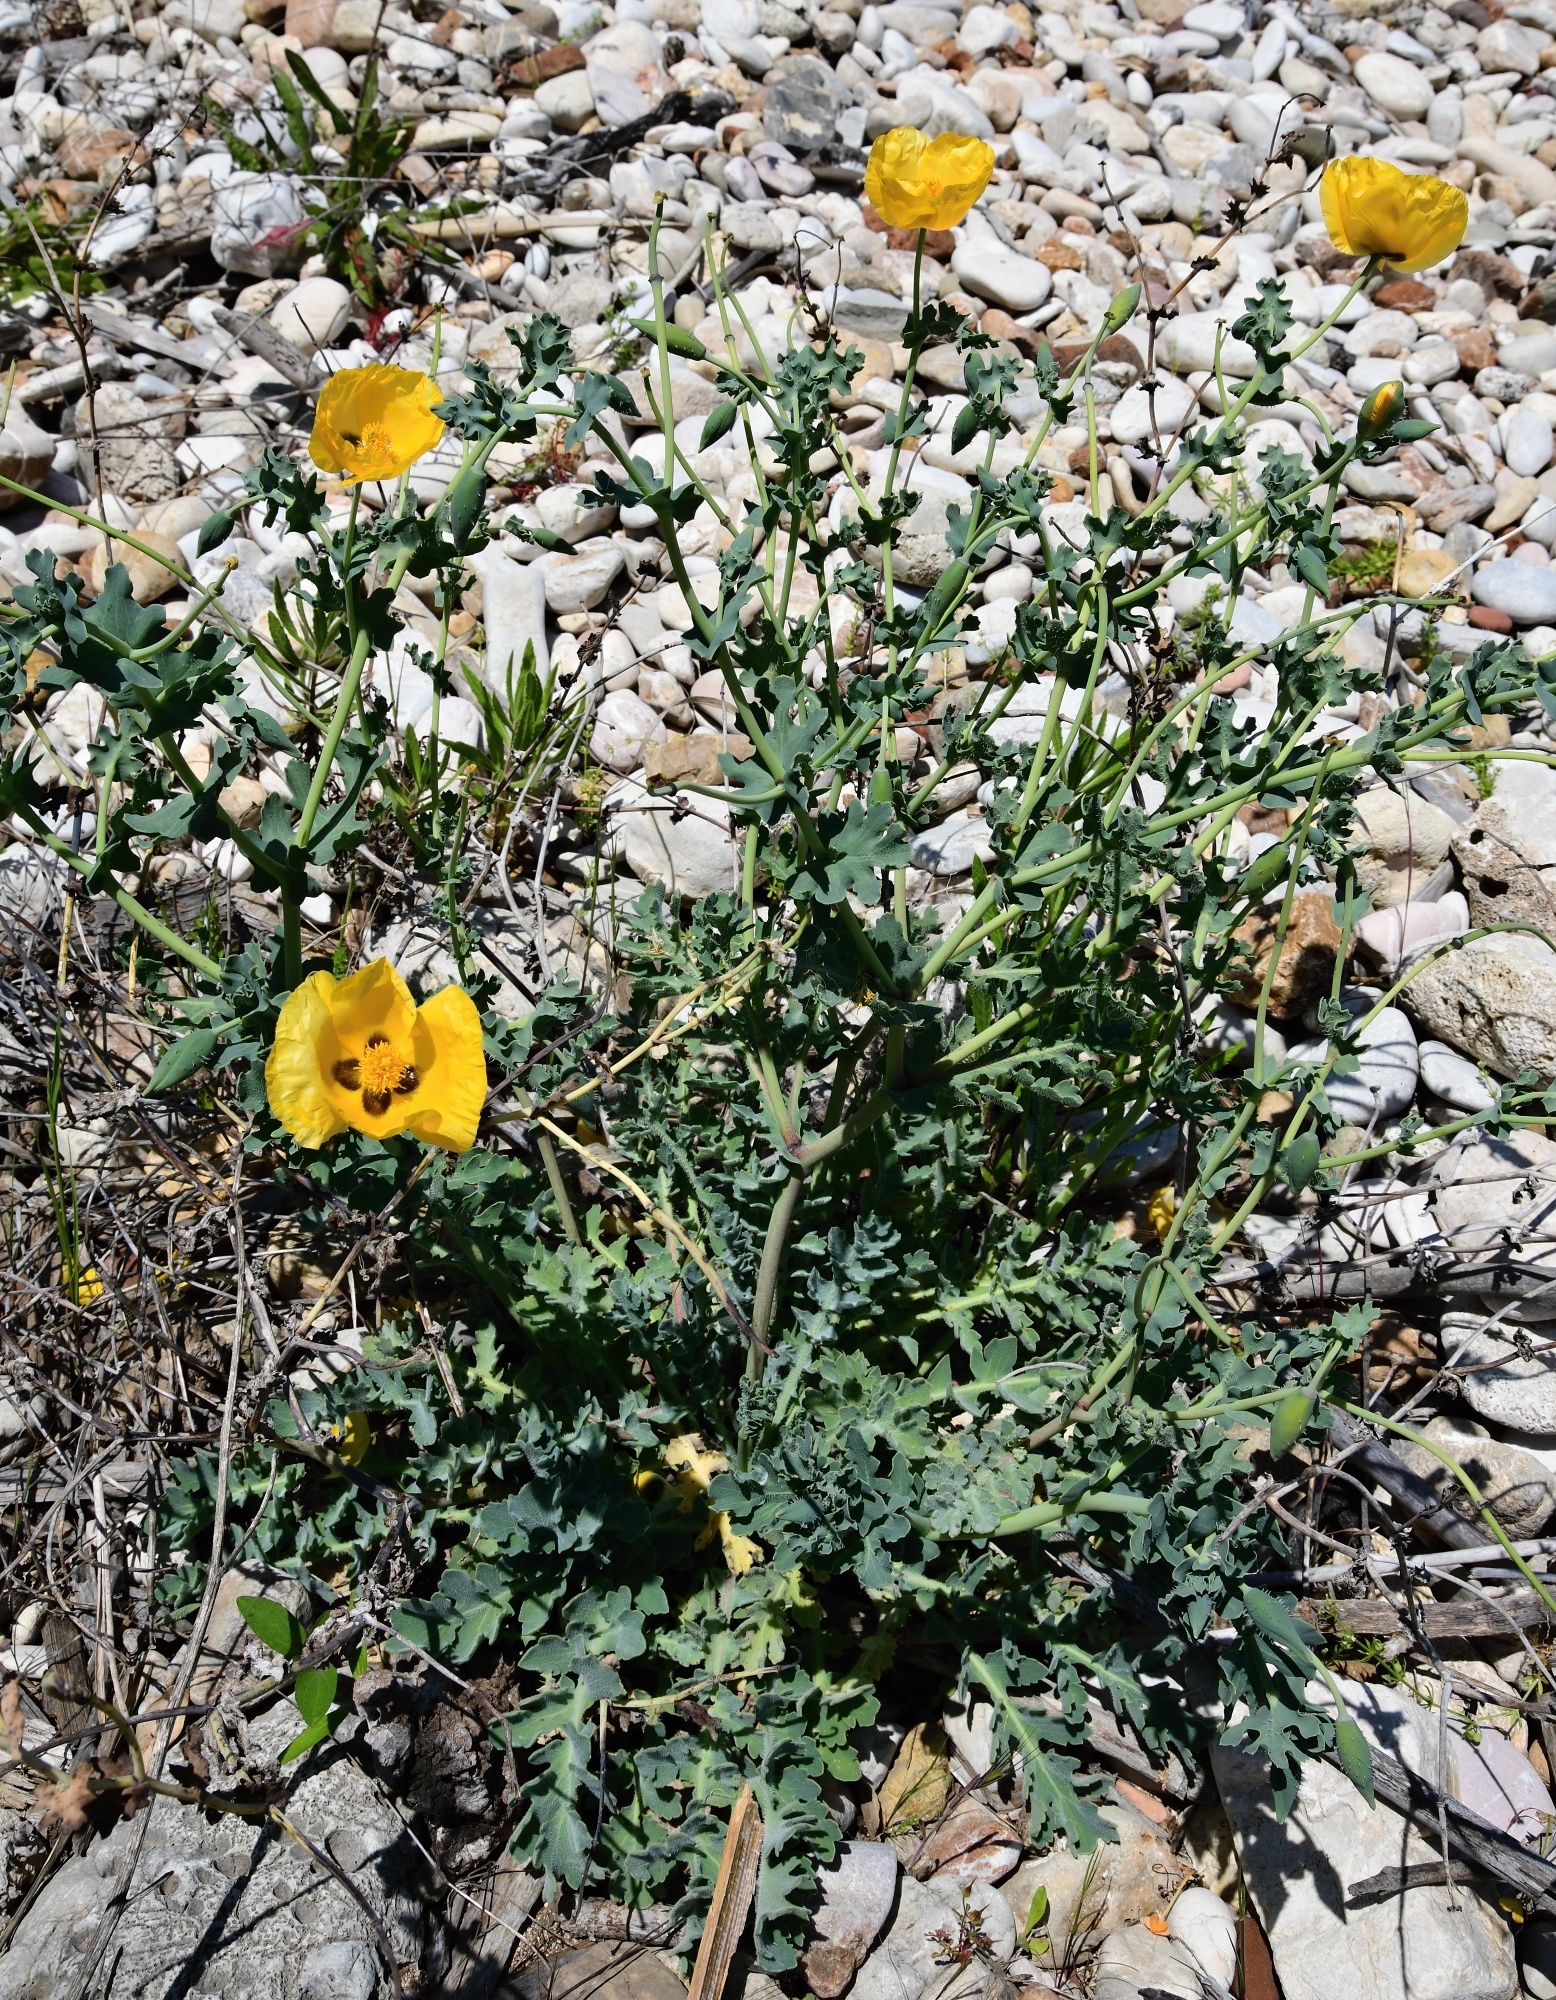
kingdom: Plantae
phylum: Tracheophyta
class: Magnoliopsida
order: Ranunculales
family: Papaveraceae
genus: Glaucium
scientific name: Glaucium flavum
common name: Yellow horned-poppy
